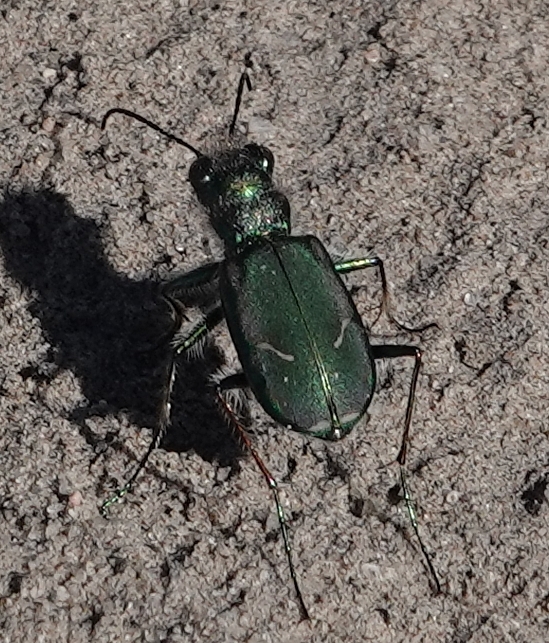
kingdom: Animalia
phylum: Arthropoda
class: Insecta
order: Coleoptera
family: Carabidae
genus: Cicindela
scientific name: Cicindela purpurea
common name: Cow path tiger beetle
